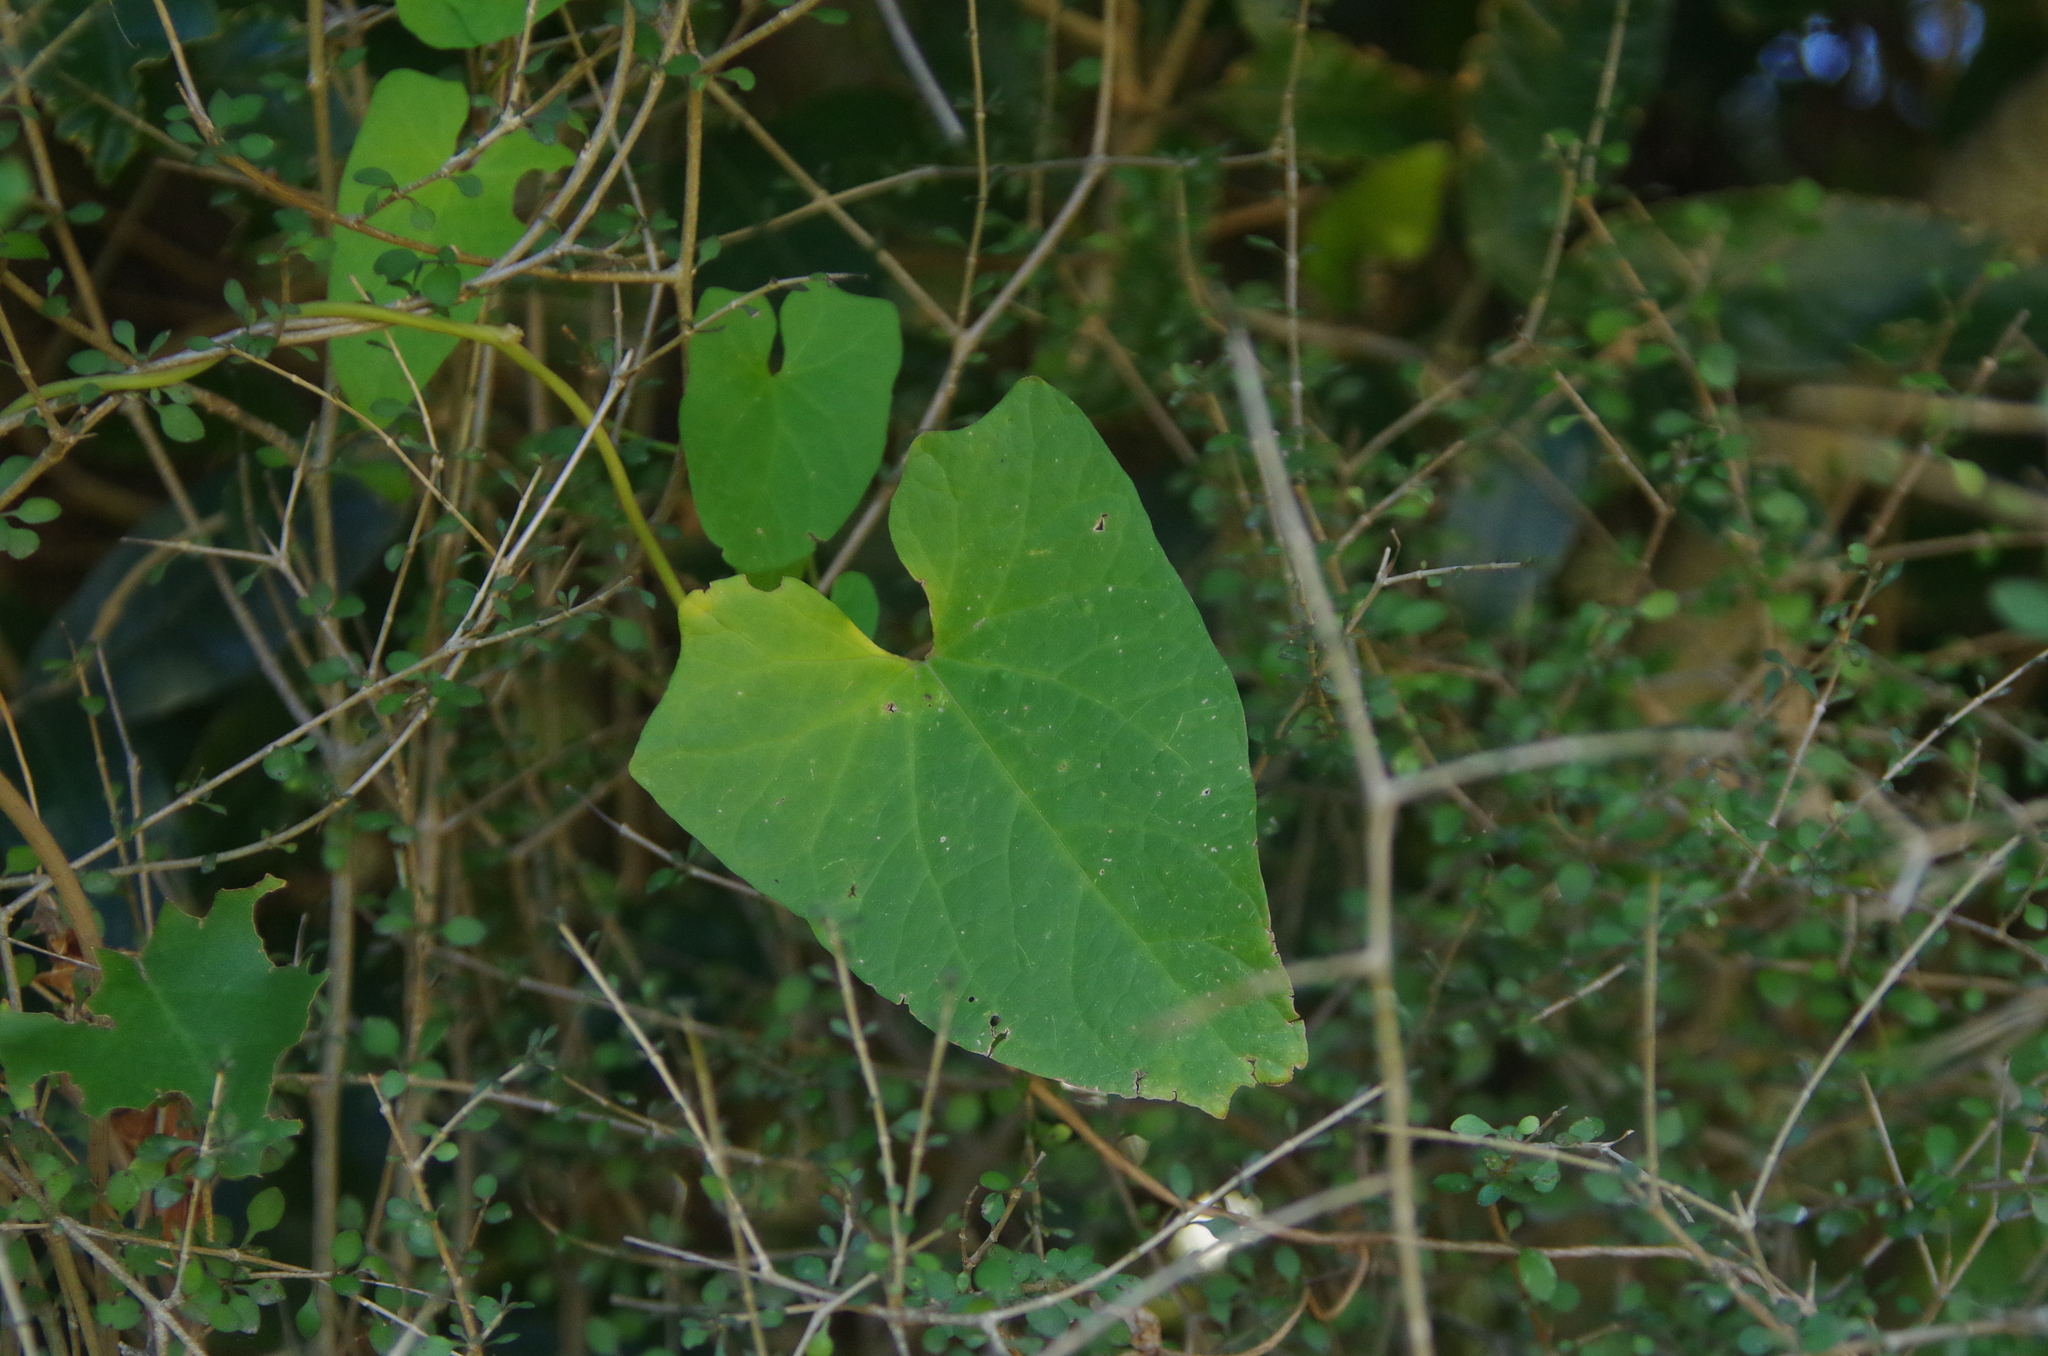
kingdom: Plantae
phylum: Tracheophyta
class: Magnoliopsida
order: Solanales
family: Convolvulaceae
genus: Calystegia
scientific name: Calystegia silvatica
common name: Large bindweed
